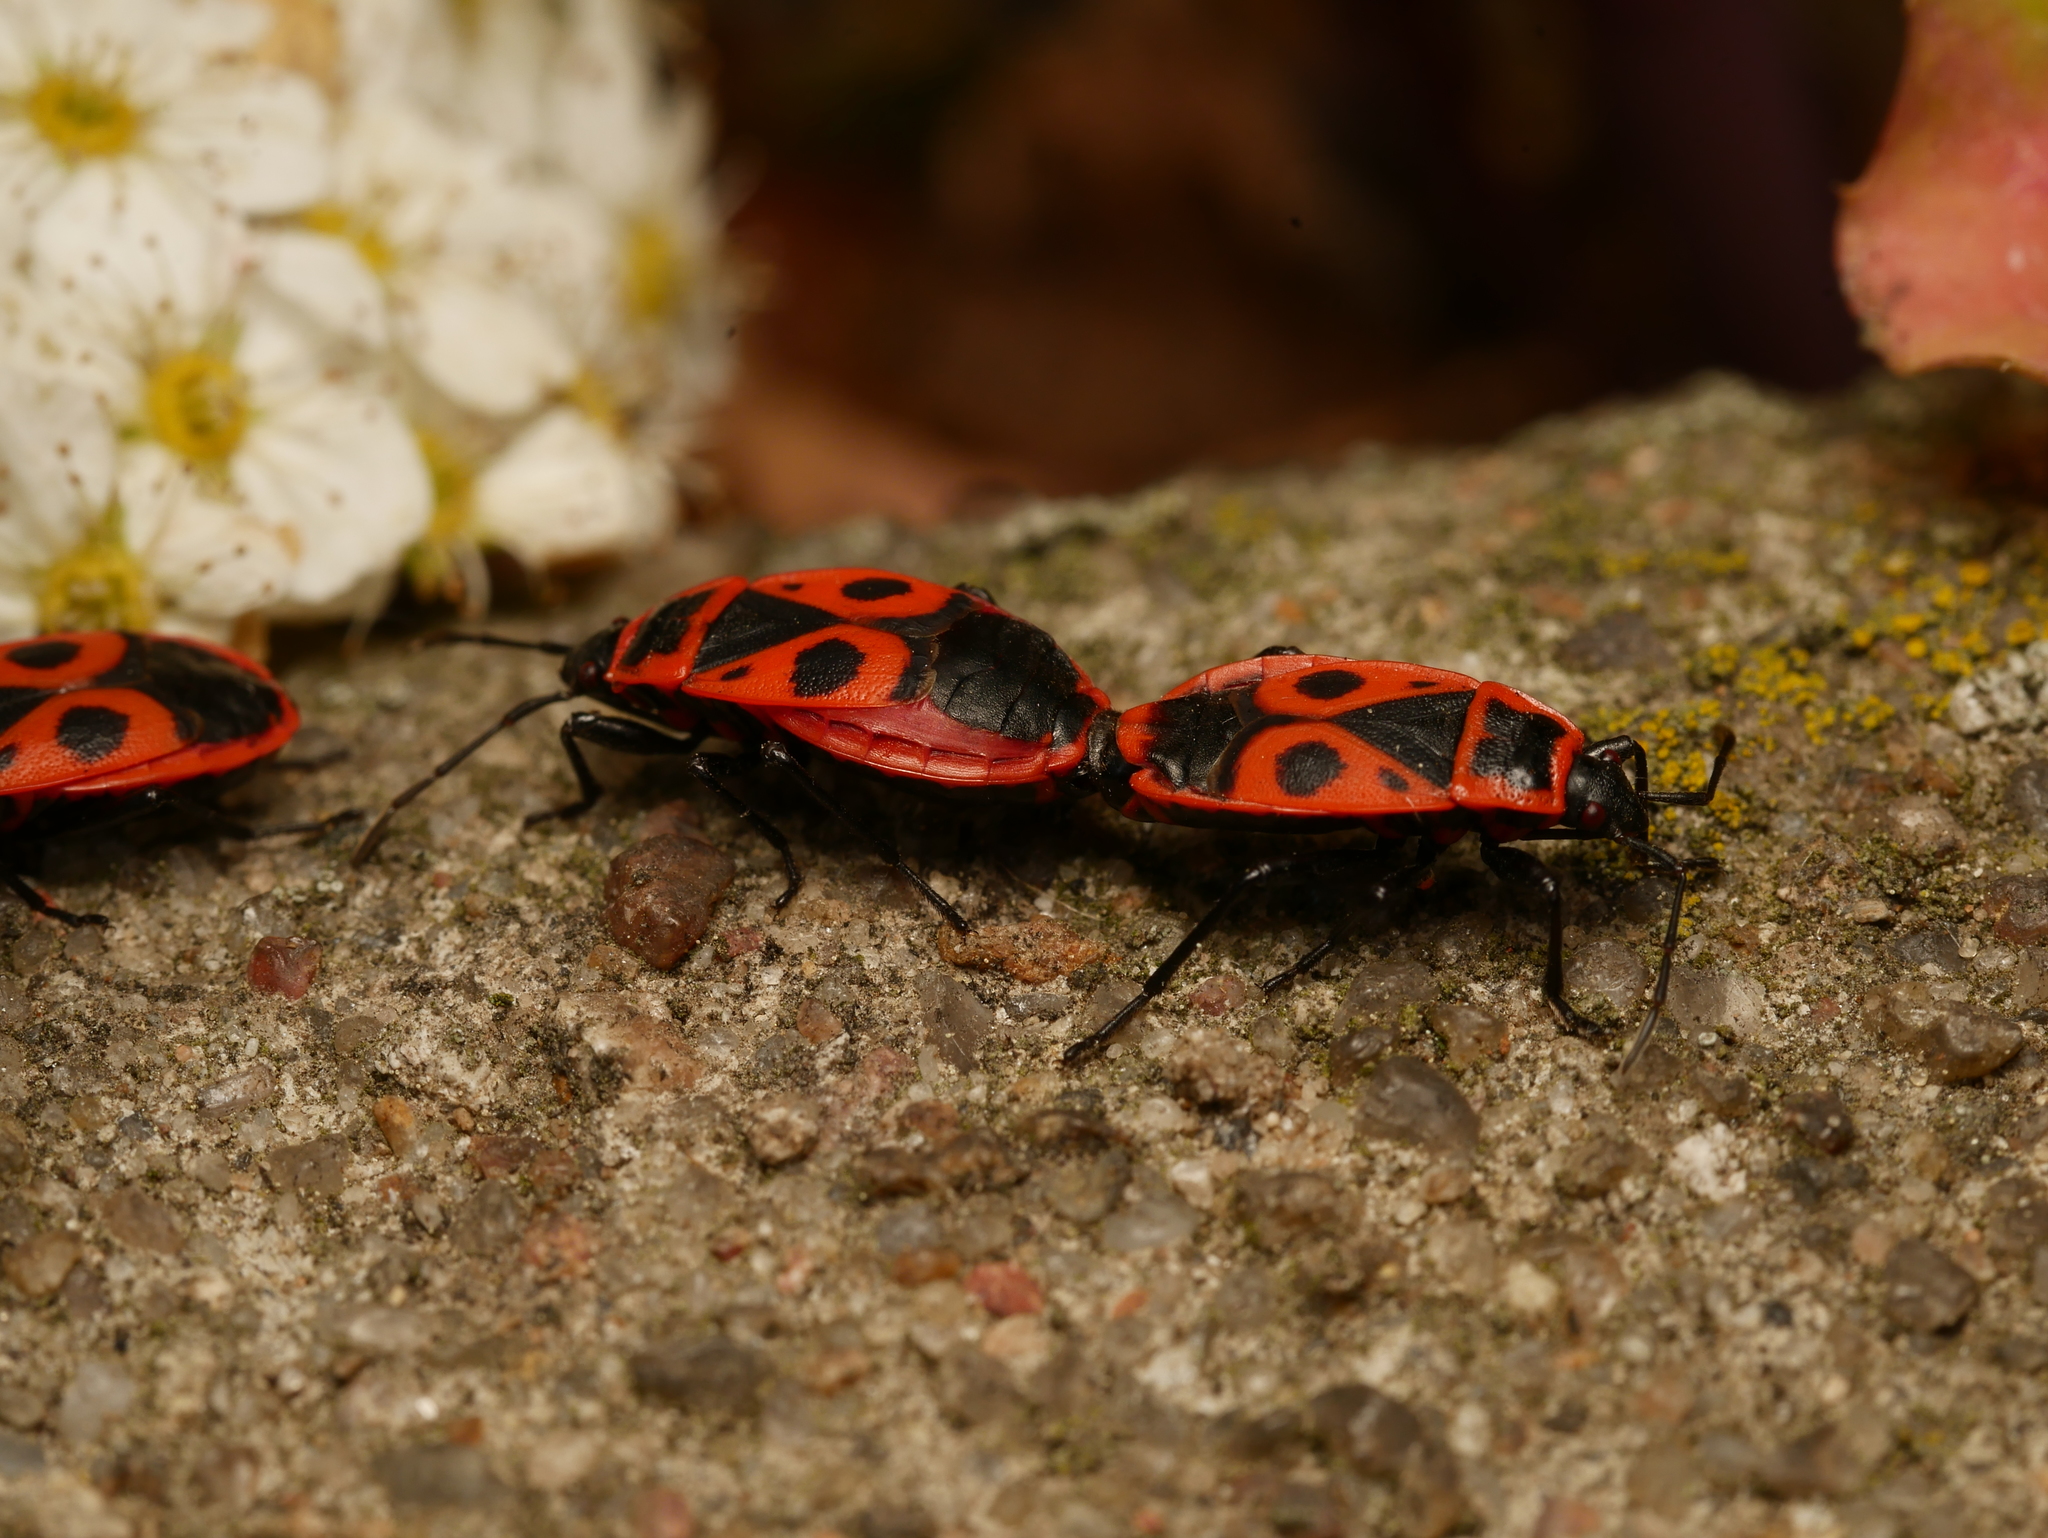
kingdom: Animalia
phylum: Arthropoda
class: Insecta
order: Hemiptera
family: Pyrrhocoridae
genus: Pyrrhocoris
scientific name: Pyrrhocoris apterus
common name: Firebug
